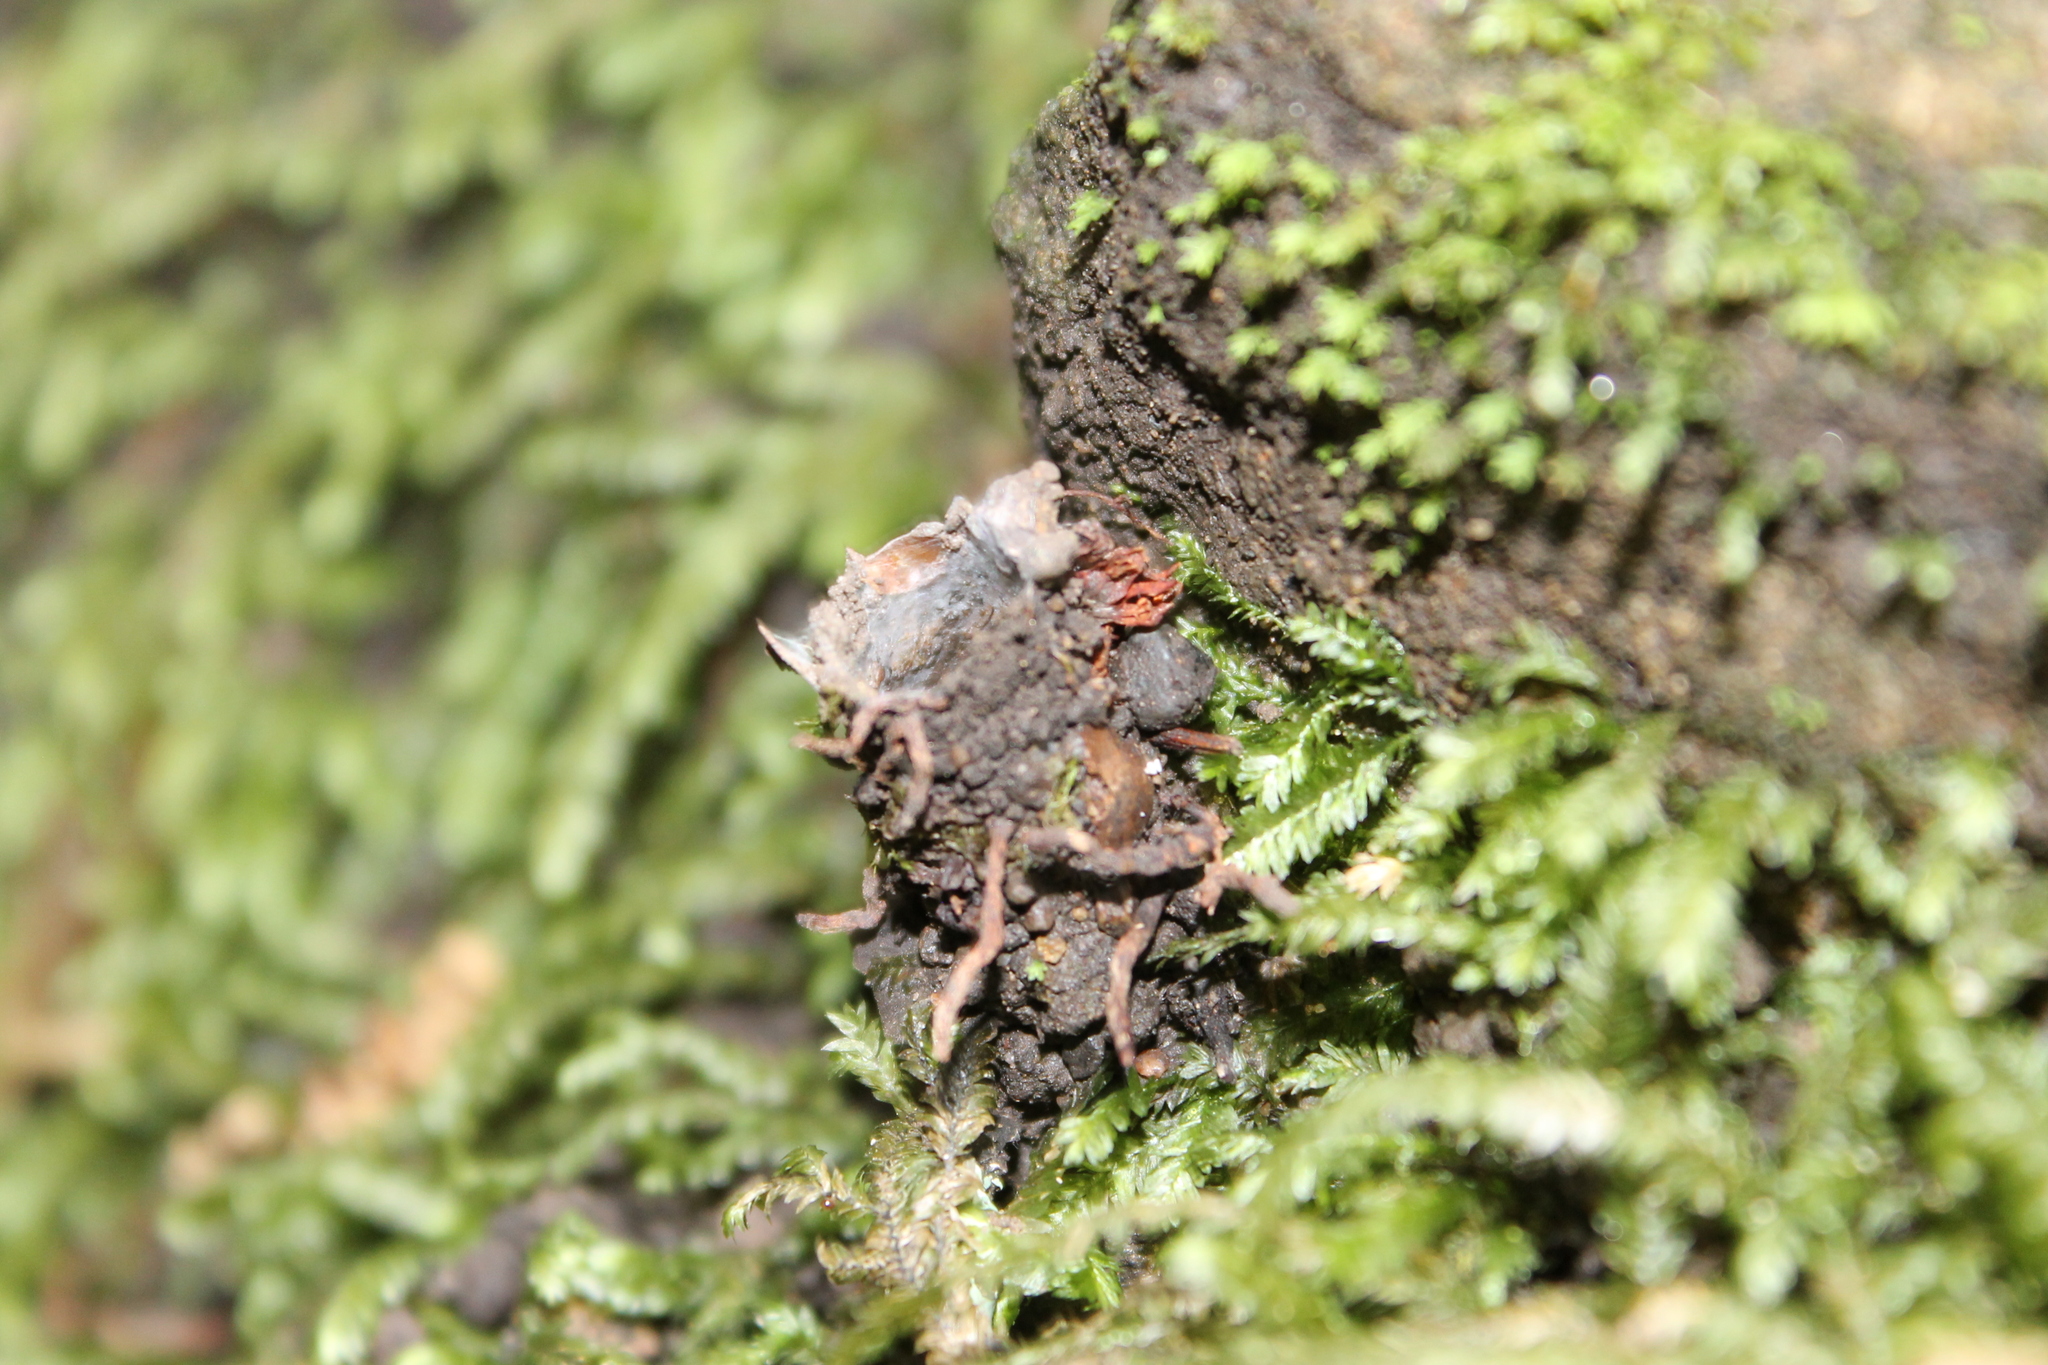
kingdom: Animalia
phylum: Arthropoda
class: Arachnida
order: Araneae
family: Antrodiaetidae
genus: Atypoides
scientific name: Atypoides riversi
